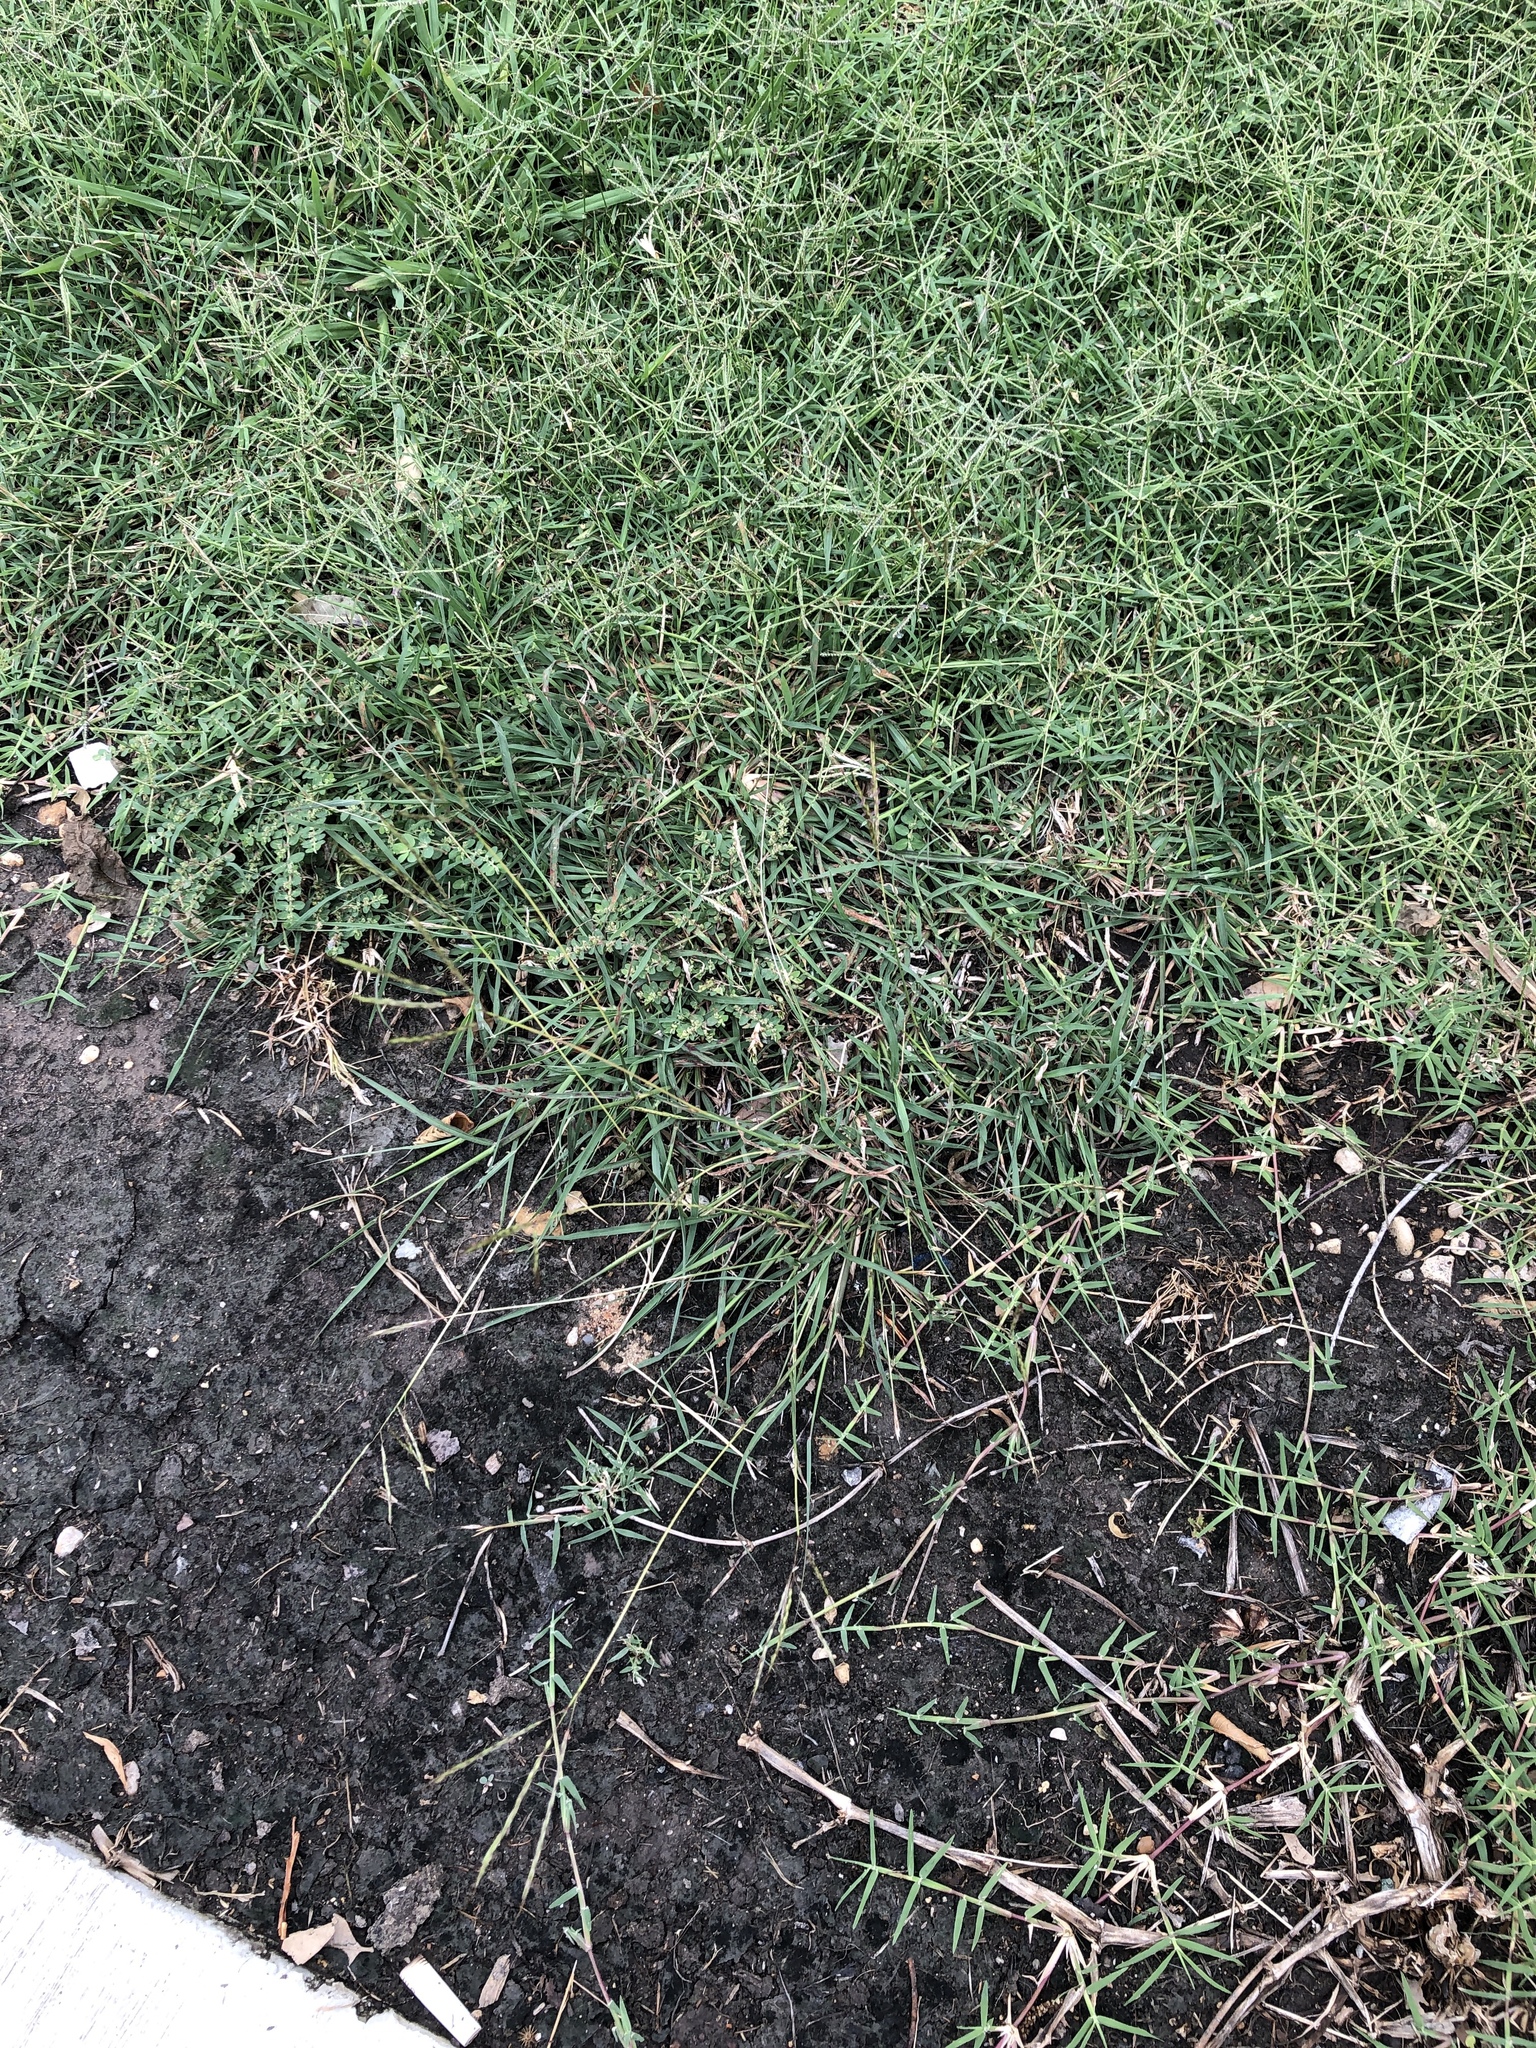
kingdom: Plantae
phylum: Tracheophyta
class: Liliopsida
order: Poales
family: Poaceae
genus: Bothriochloa
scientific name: Bothriochloa ischaemum
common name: Yellow bluestem
